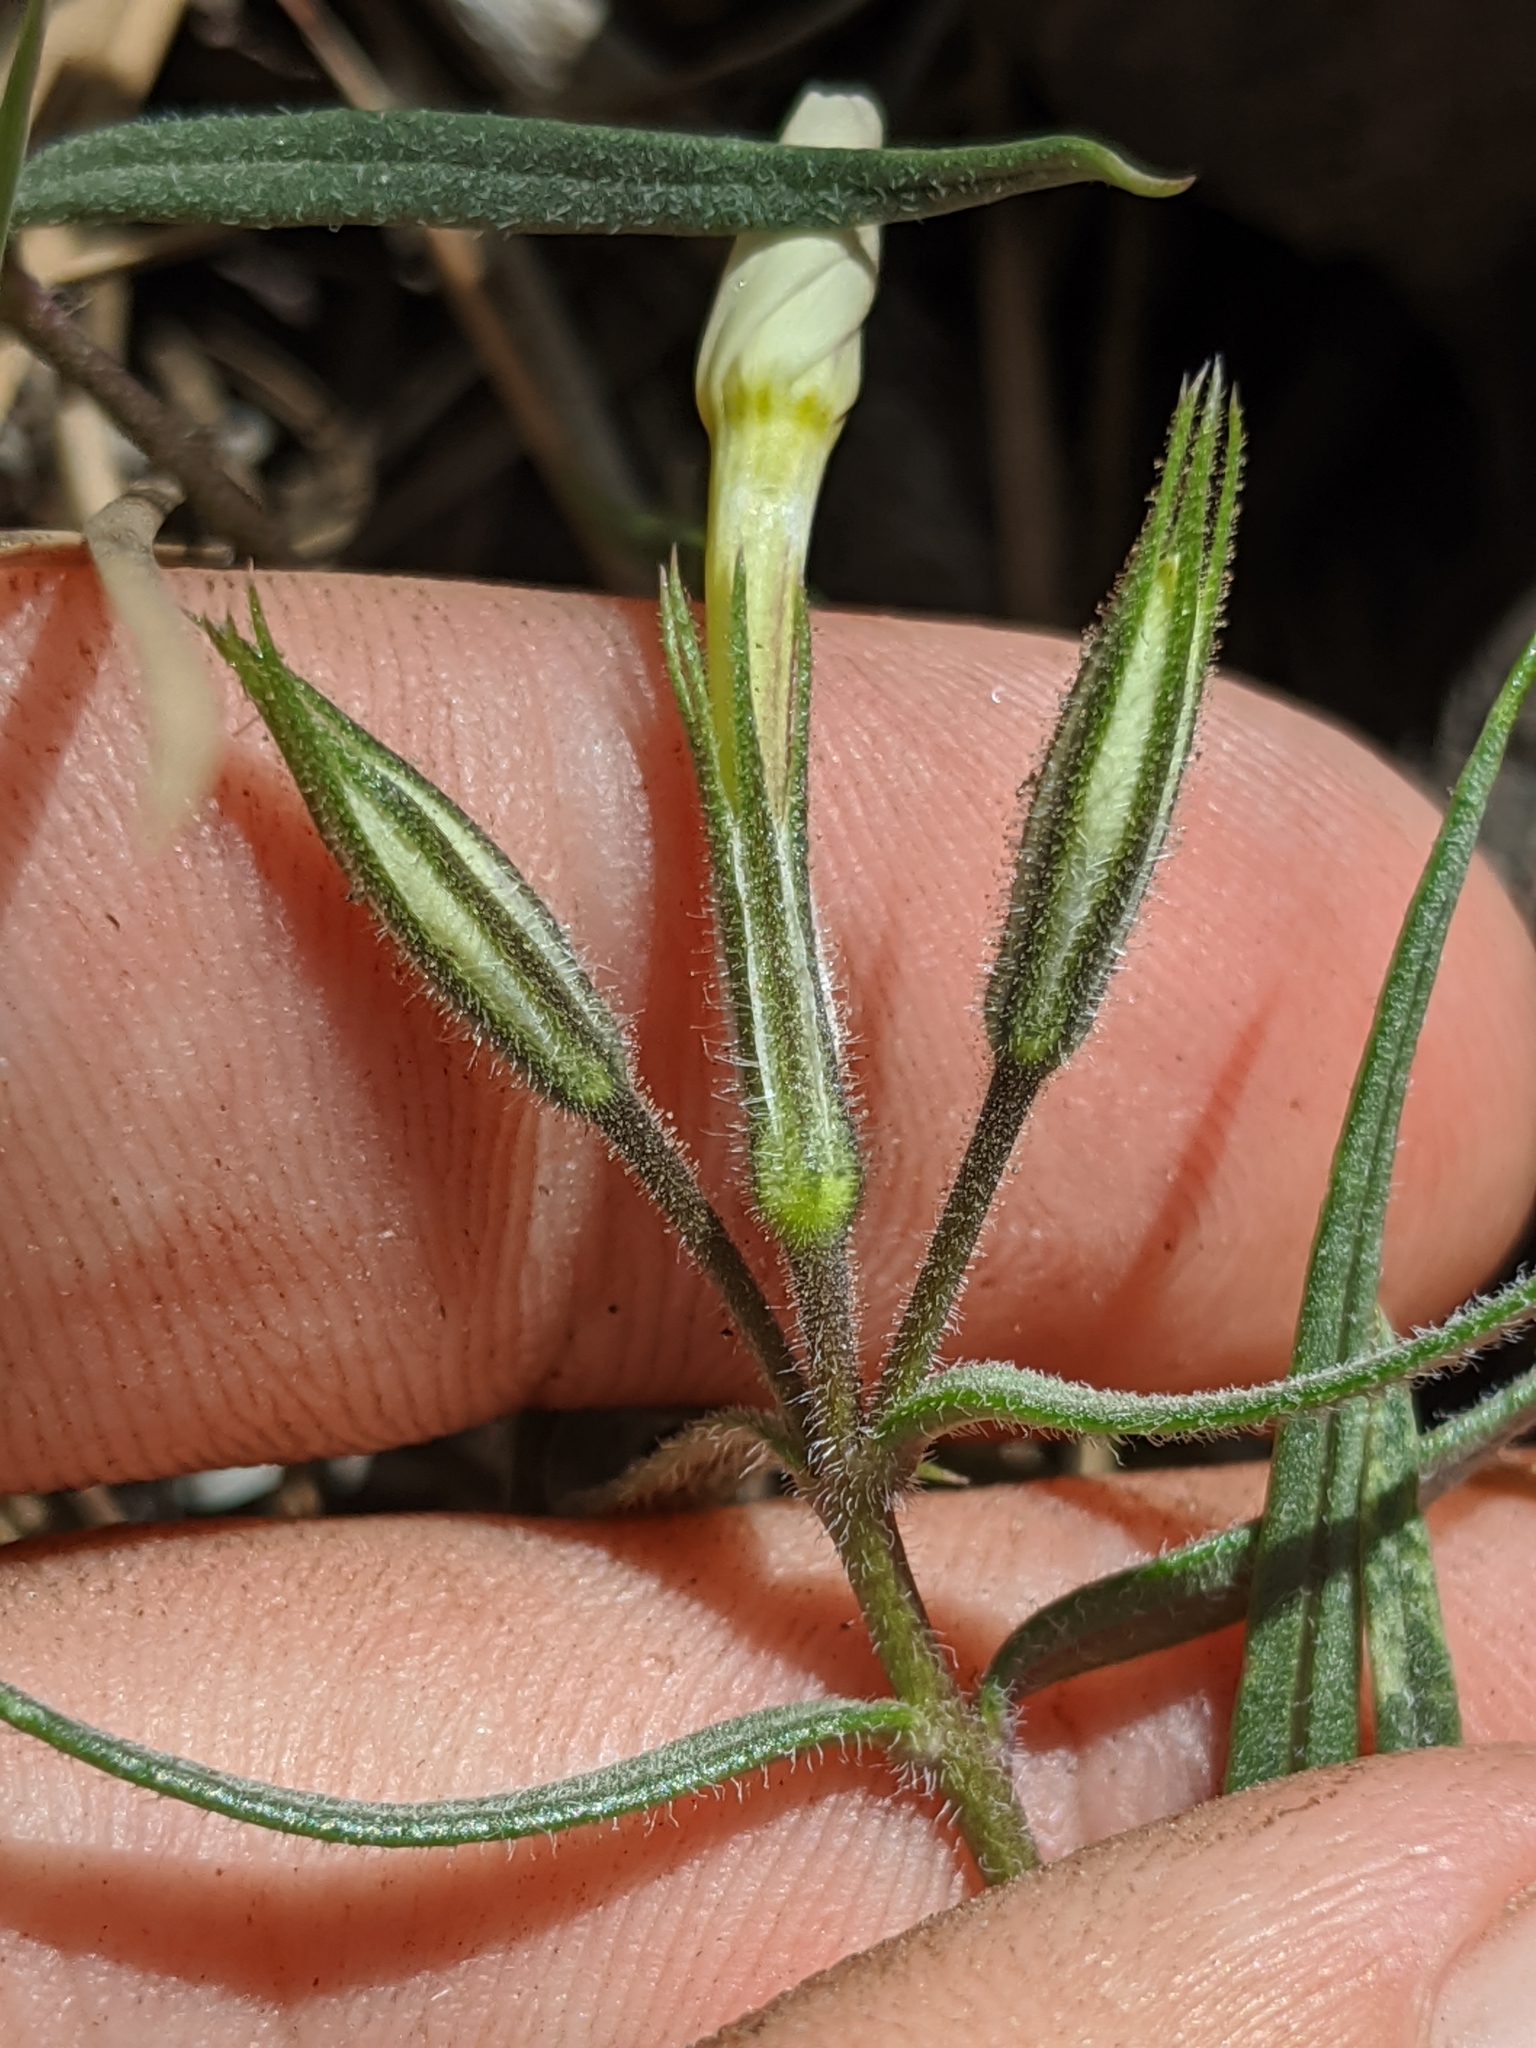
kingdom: Plantae
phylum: Tracheophyta
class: Magnoliopsida
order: Ericales
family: Polemoniaceae
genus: Phlox
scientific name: Phlox dolichantha
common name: Bear valley phlox
